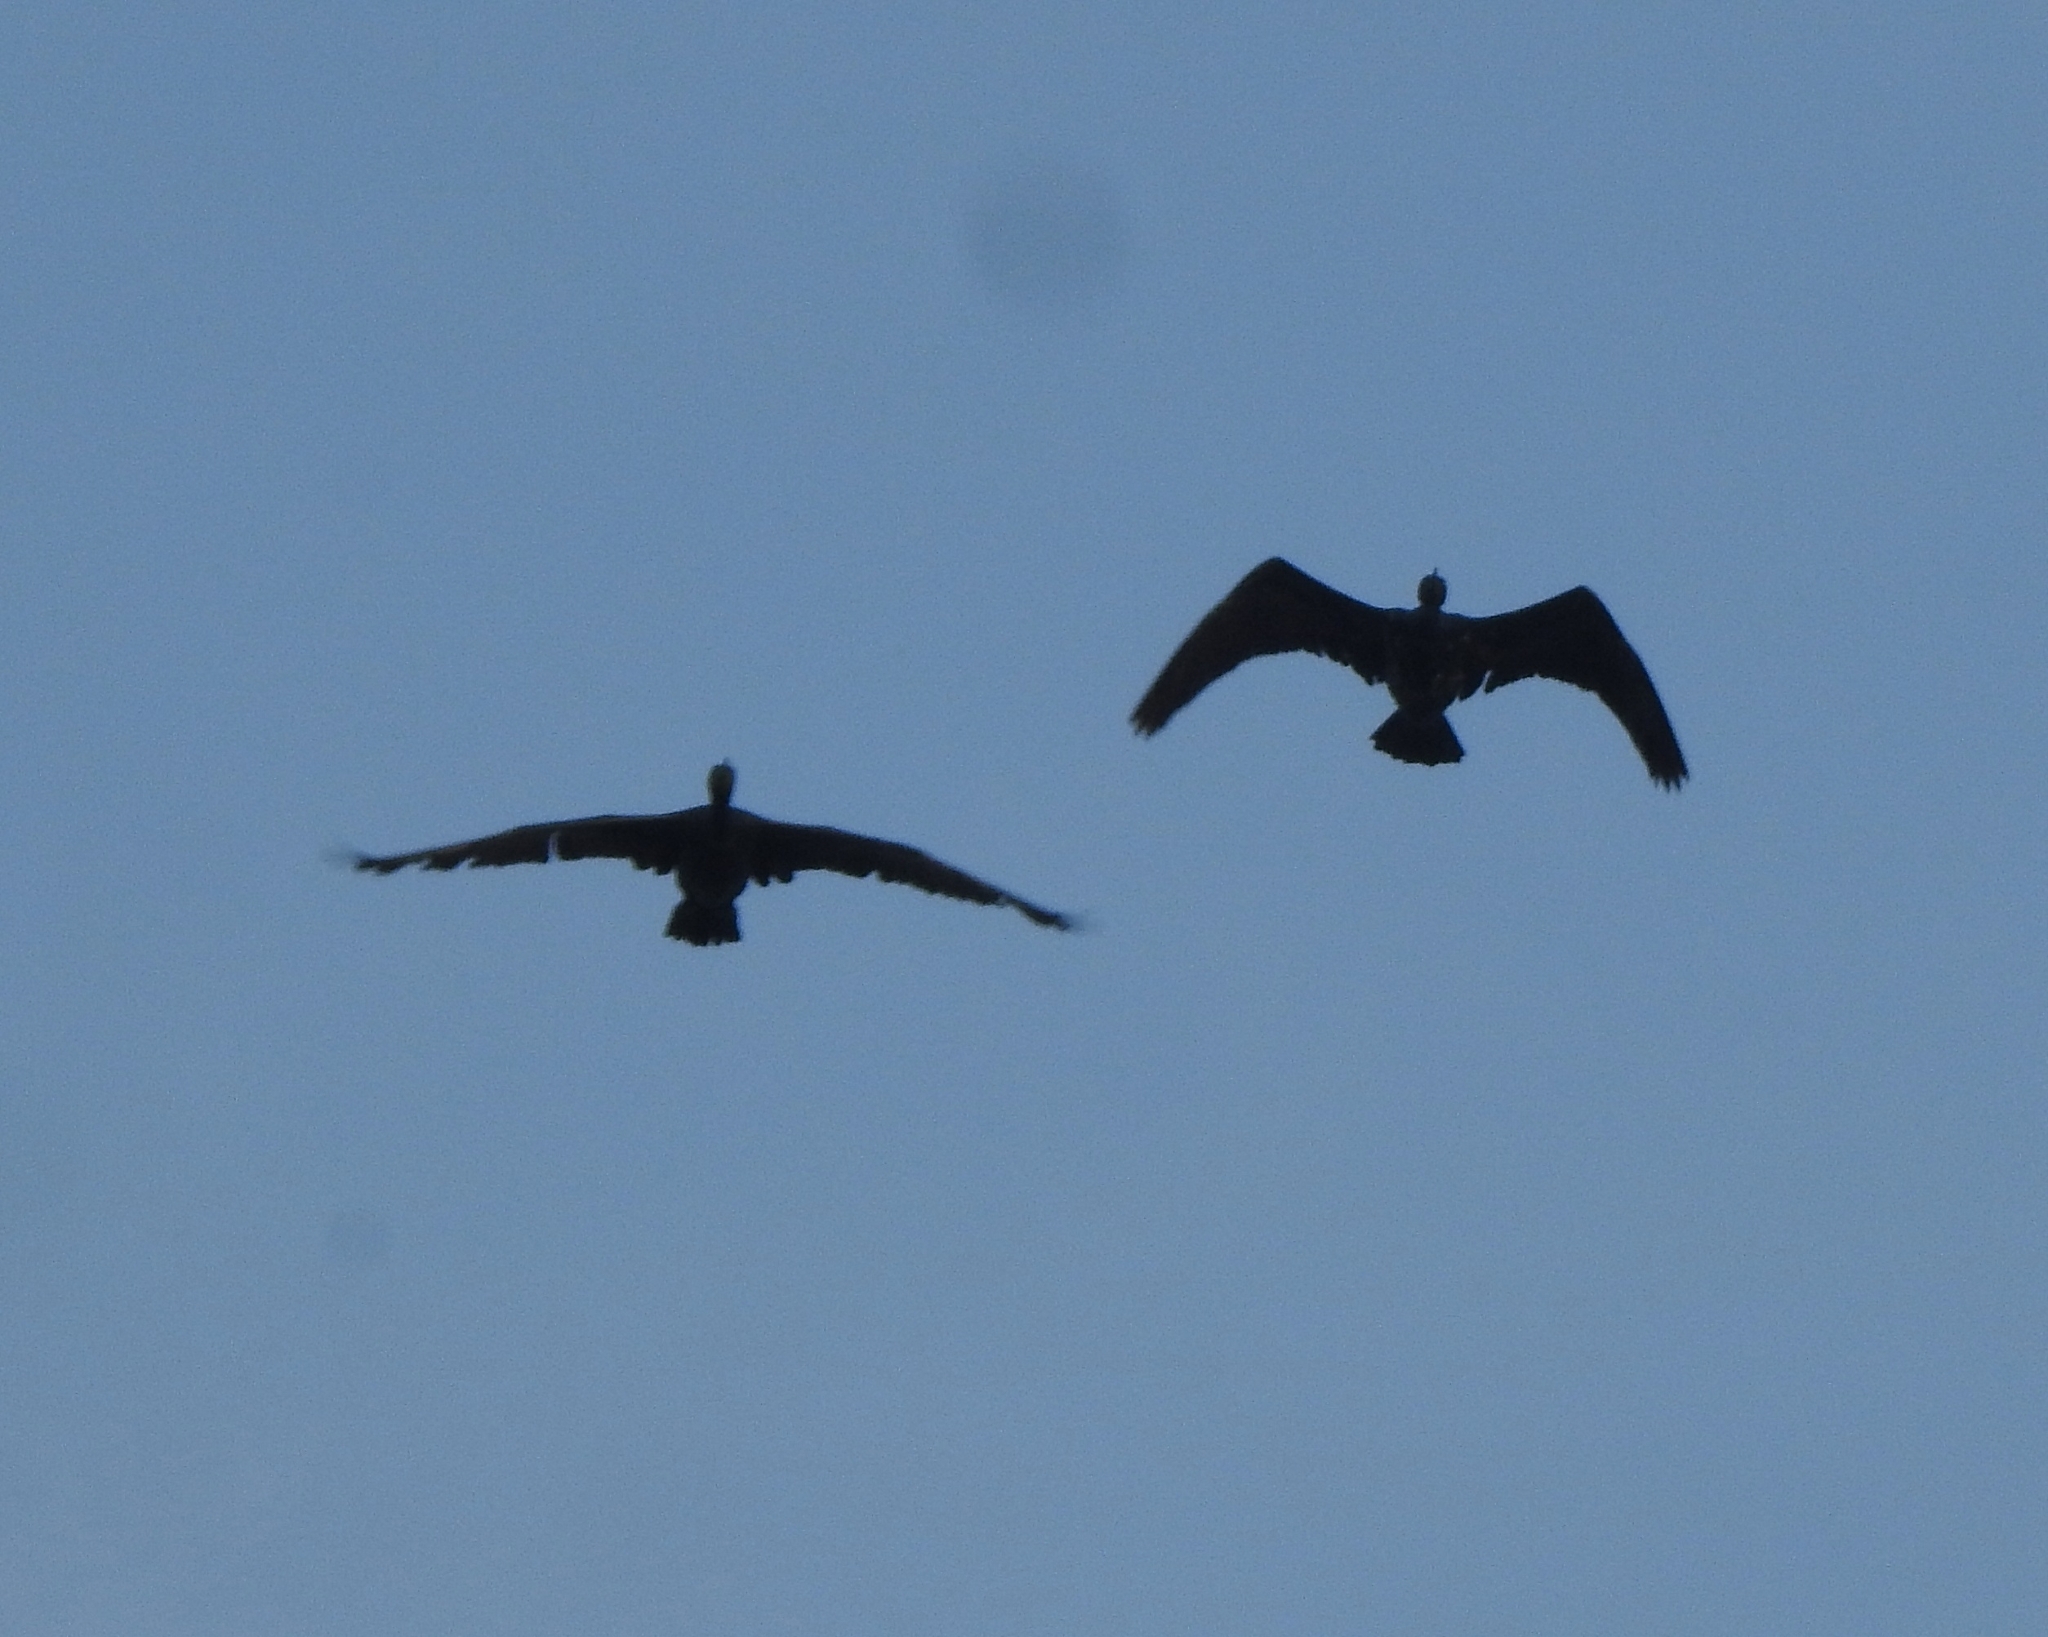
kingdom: Animalia
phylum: Chordata
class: Aves
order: Suliformes
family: Phalacrocoracidae
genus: Phalacrocorax
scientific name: Phalacrocorax fuscicollis
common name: Indian cormorant
